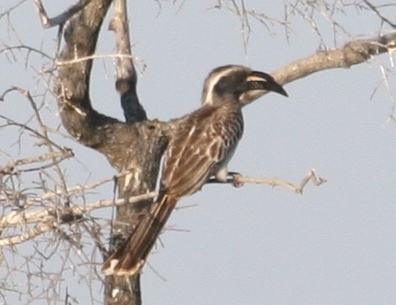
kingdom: Animalia
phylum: Chordata
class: Aves
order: Bucerotiformes
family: Bucerotidae
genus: Lophoceros
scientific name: Lophoceros nasutus
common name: African grey hornbill
